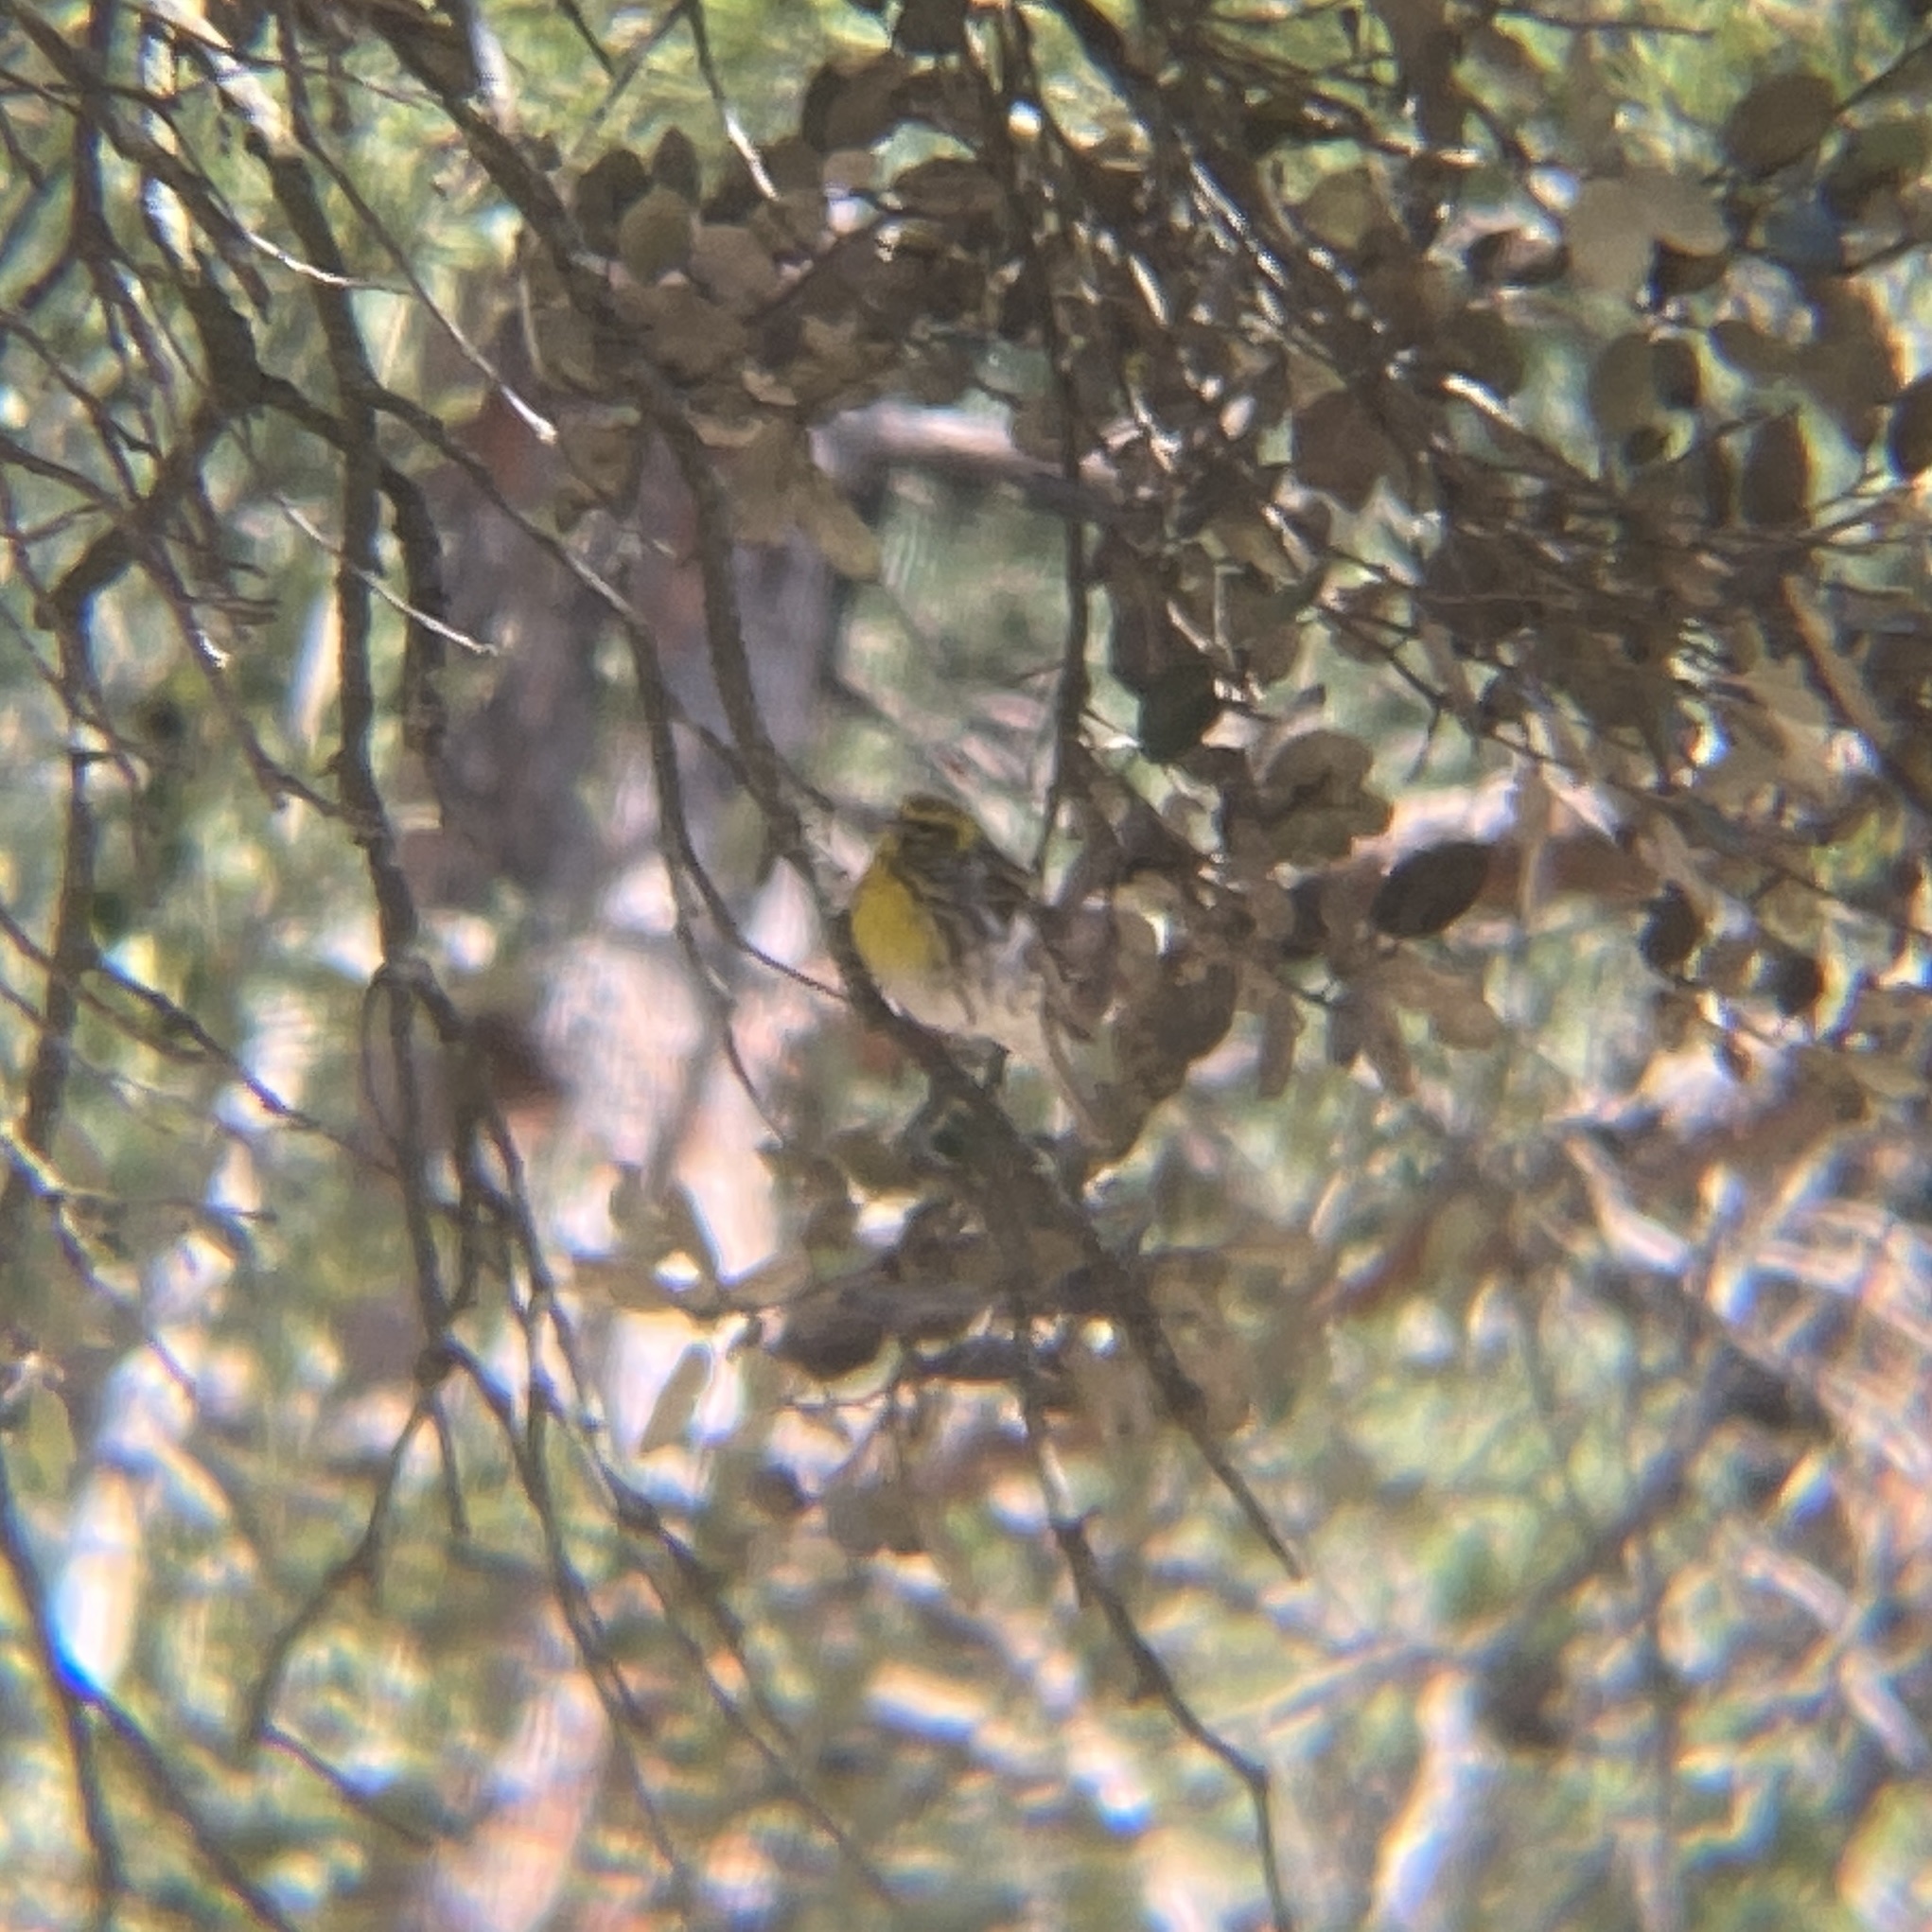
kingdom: Animalia
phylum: Chordata
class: Aves
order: Passeriformes
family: Fringillidae
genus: Serinus
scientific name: Serinus serinus
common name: European serin
